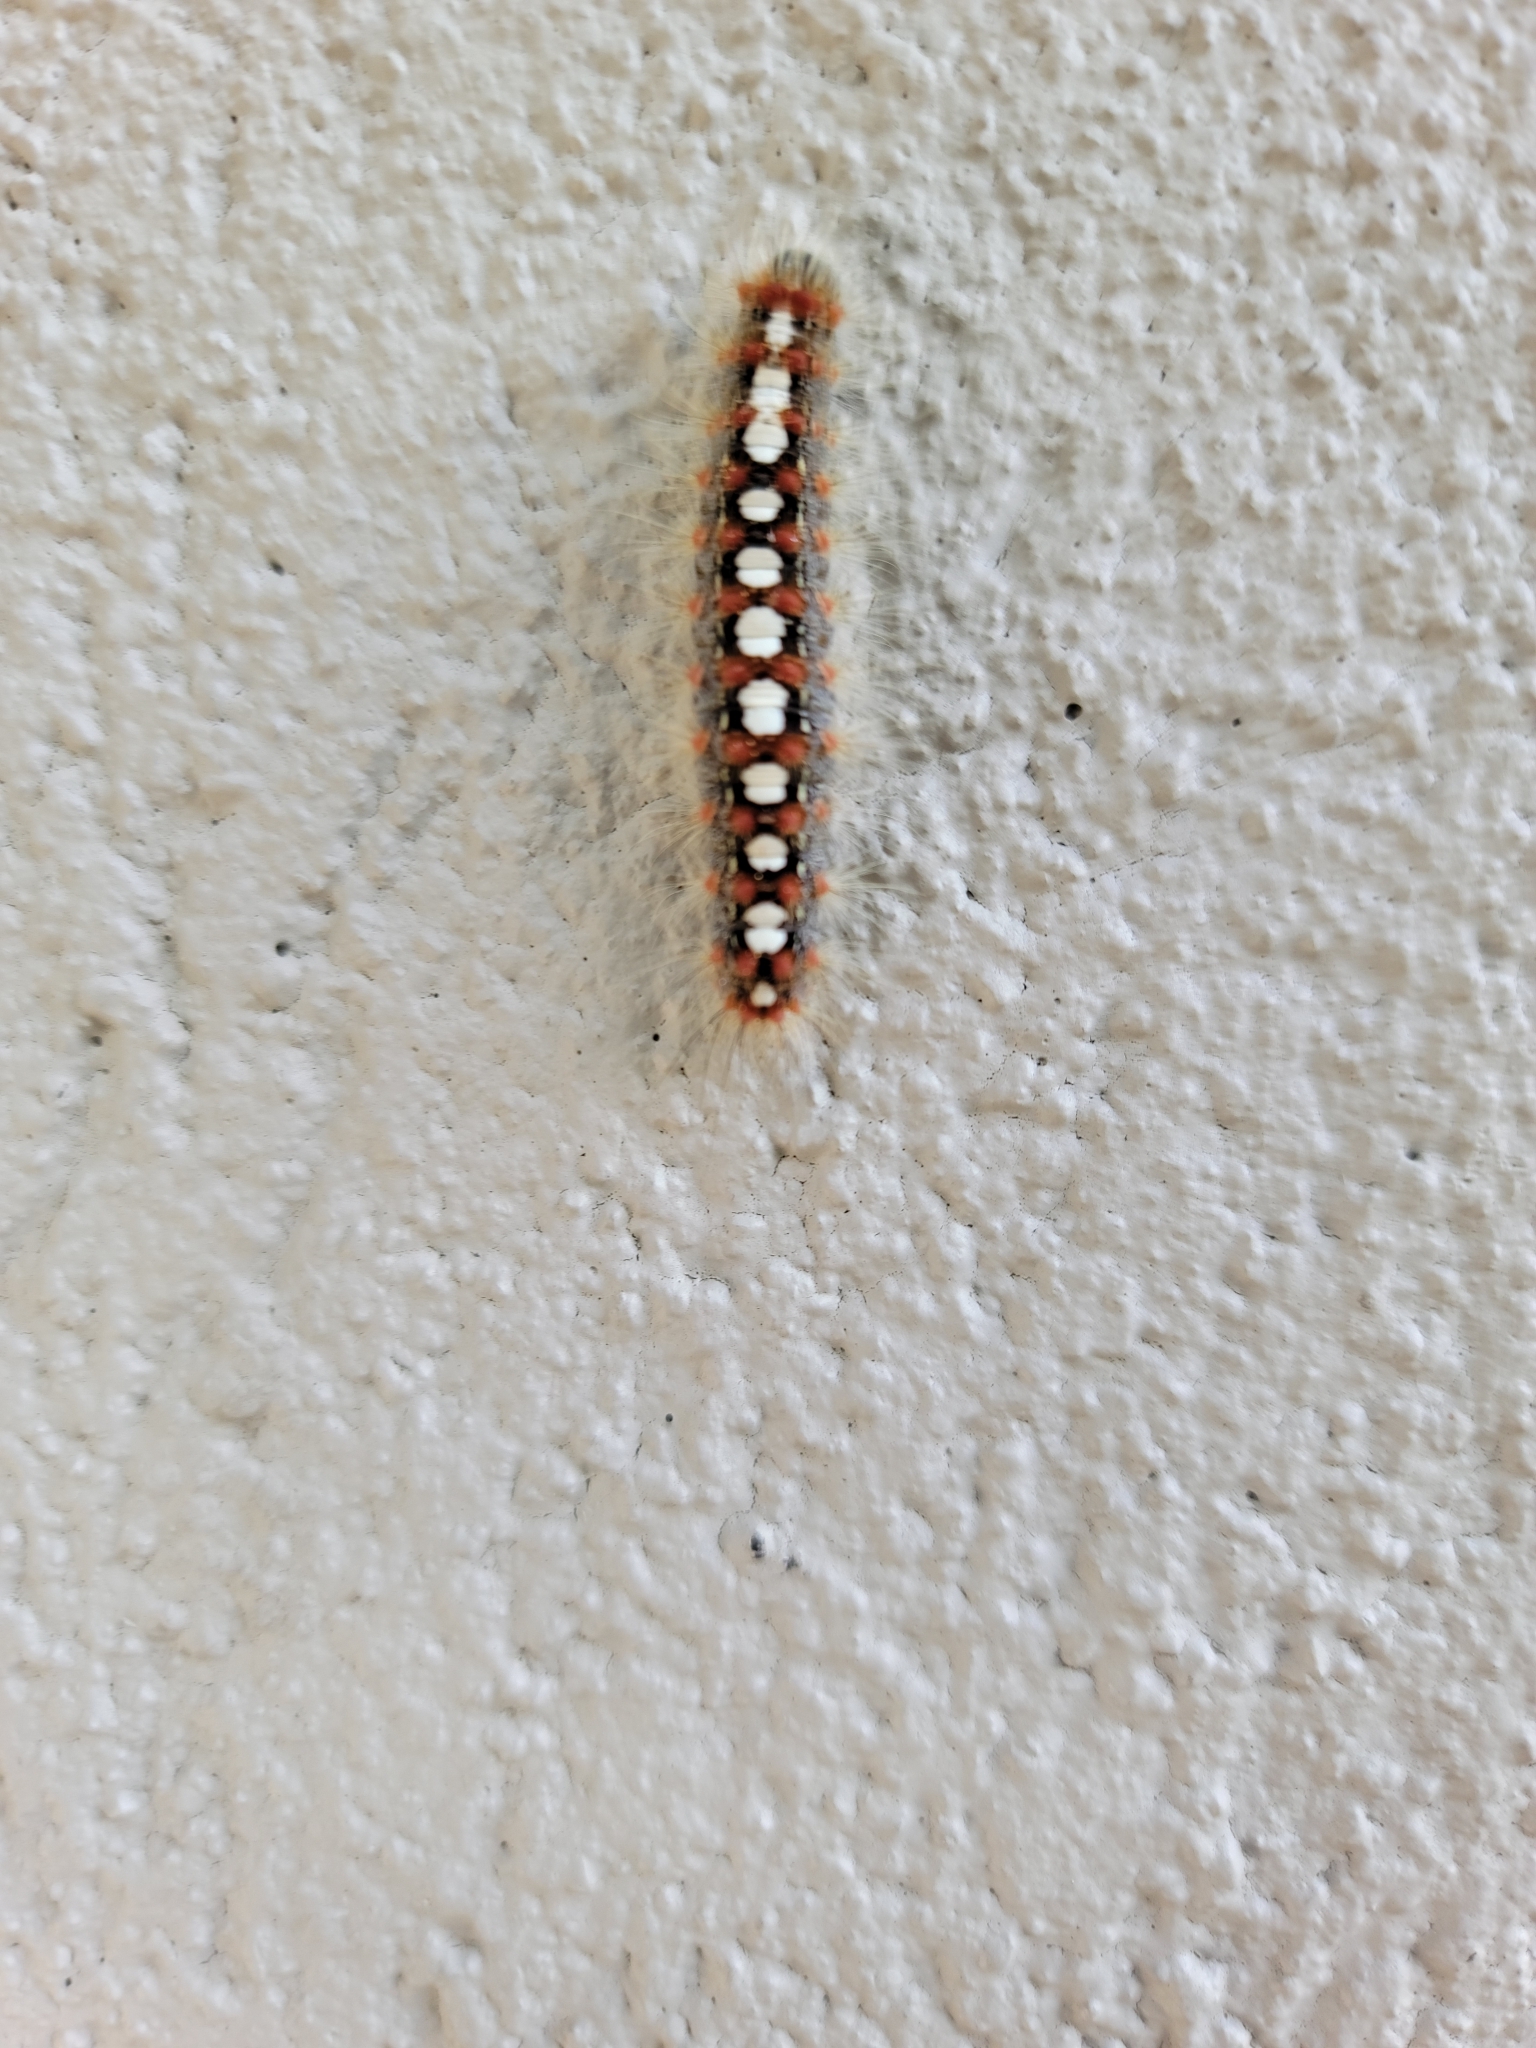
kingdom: Animalia
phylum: Arthropoda
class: Insecta
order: Lepidoptera
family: Erebidae
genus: Leucoma
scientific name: Leucoma salicis
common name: White satin moth
